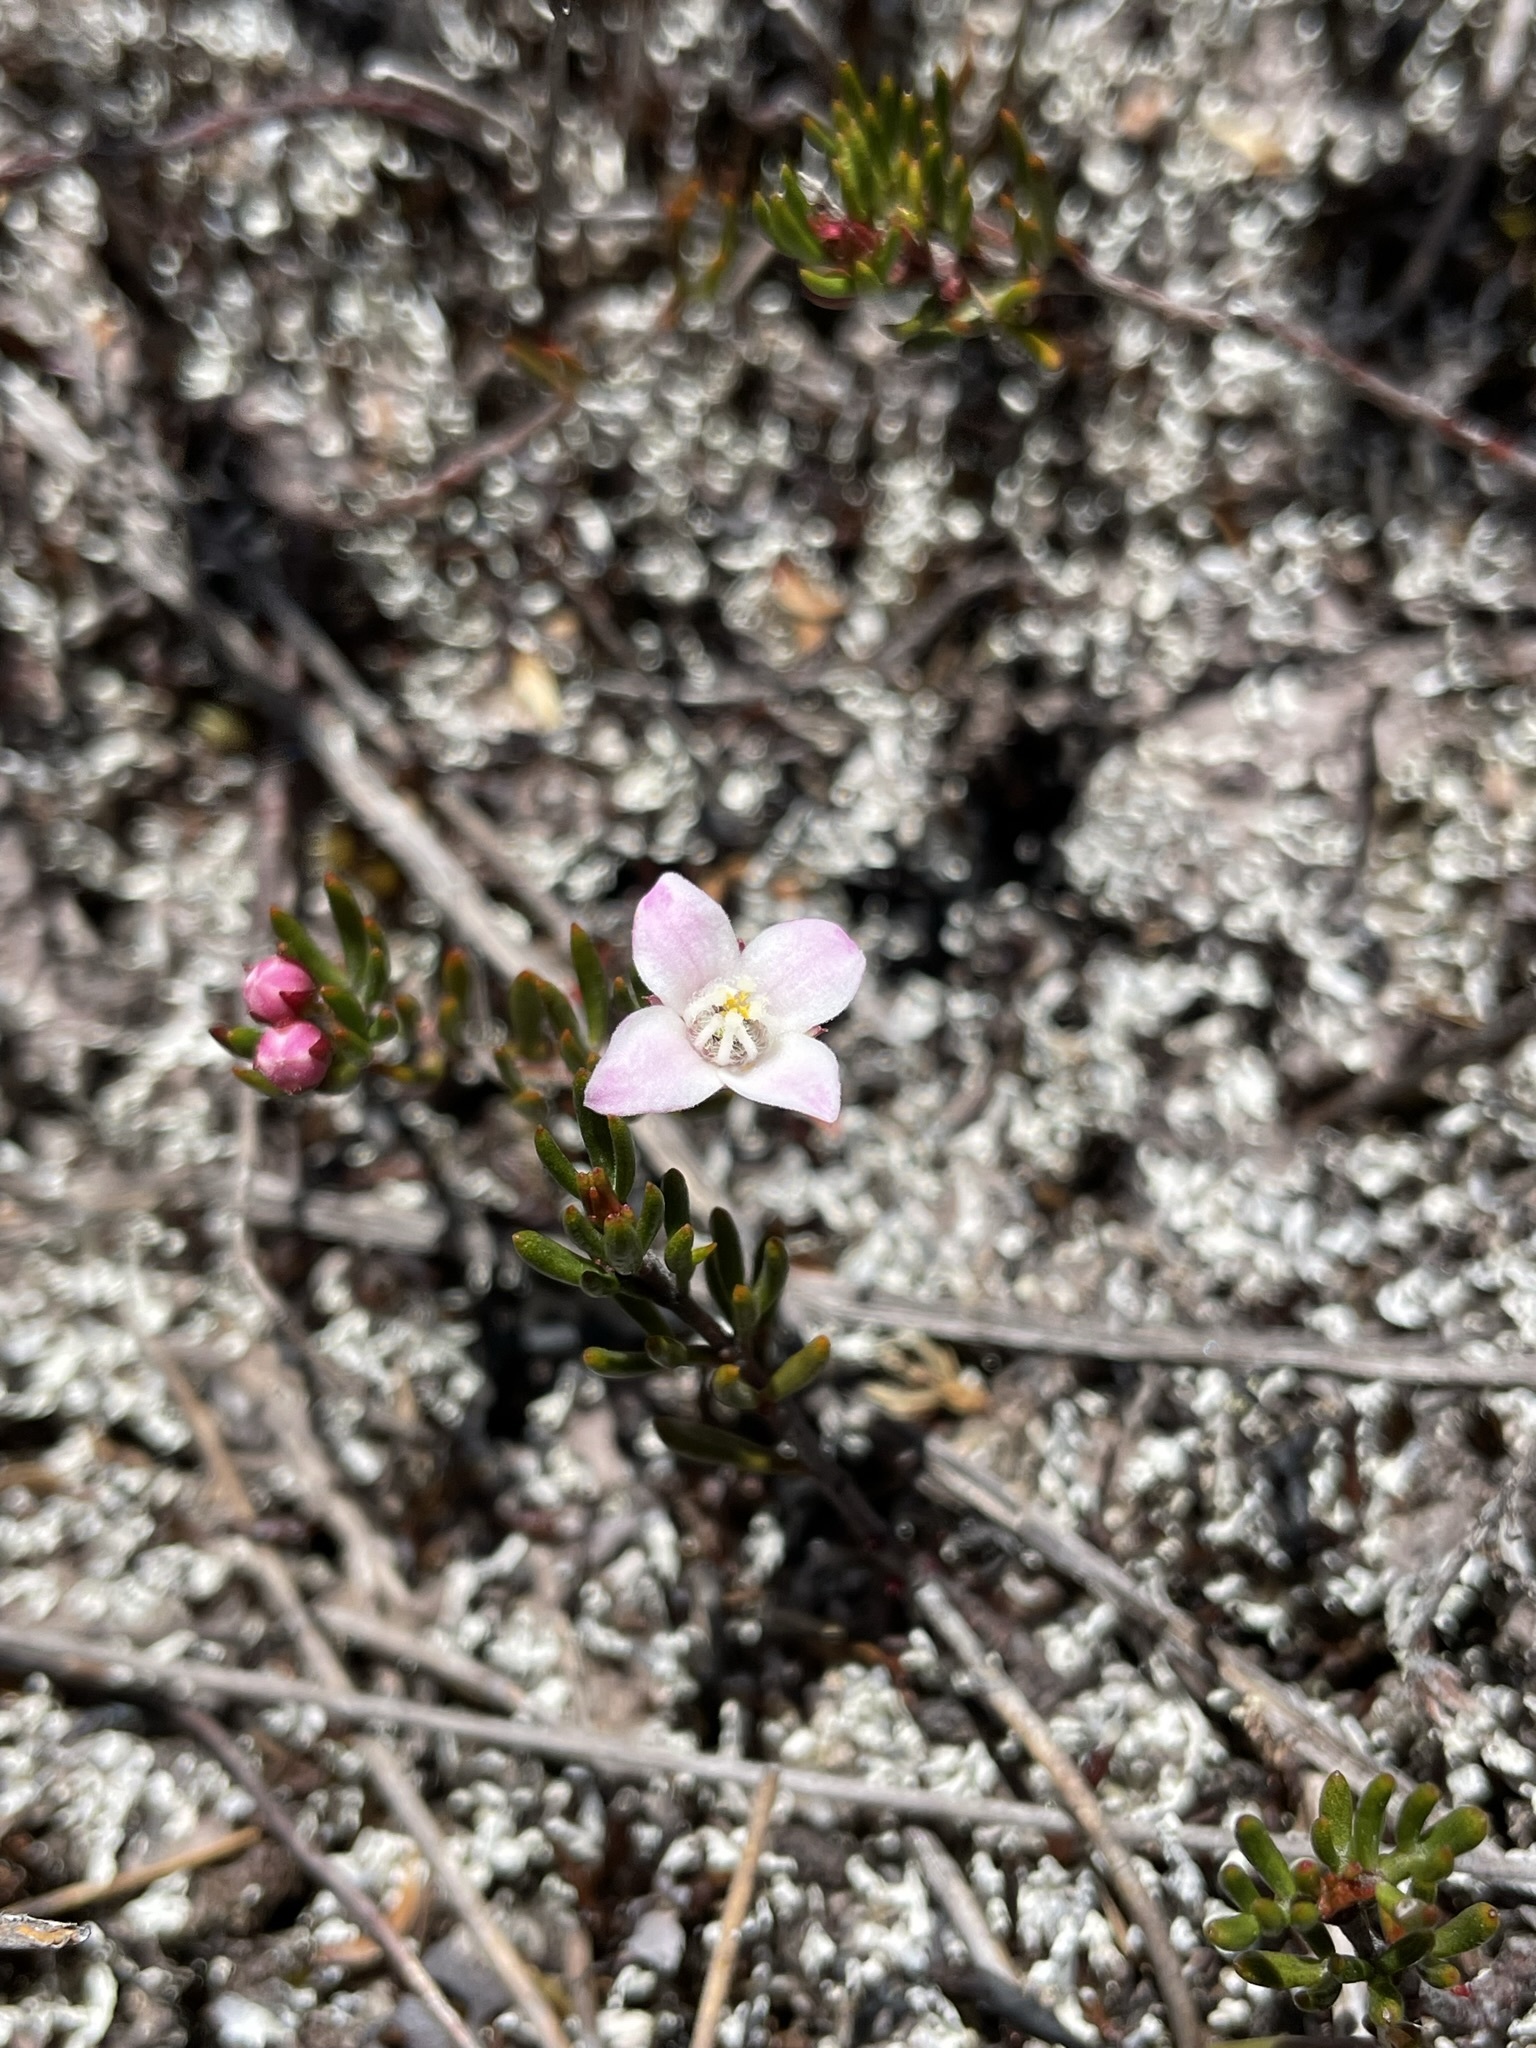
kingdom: Plantae
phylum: Tracheophyta
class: Magnoliopsida
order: Sapindales
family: Rutaceae
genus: Boronia
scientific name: Boronia elisabethiae
